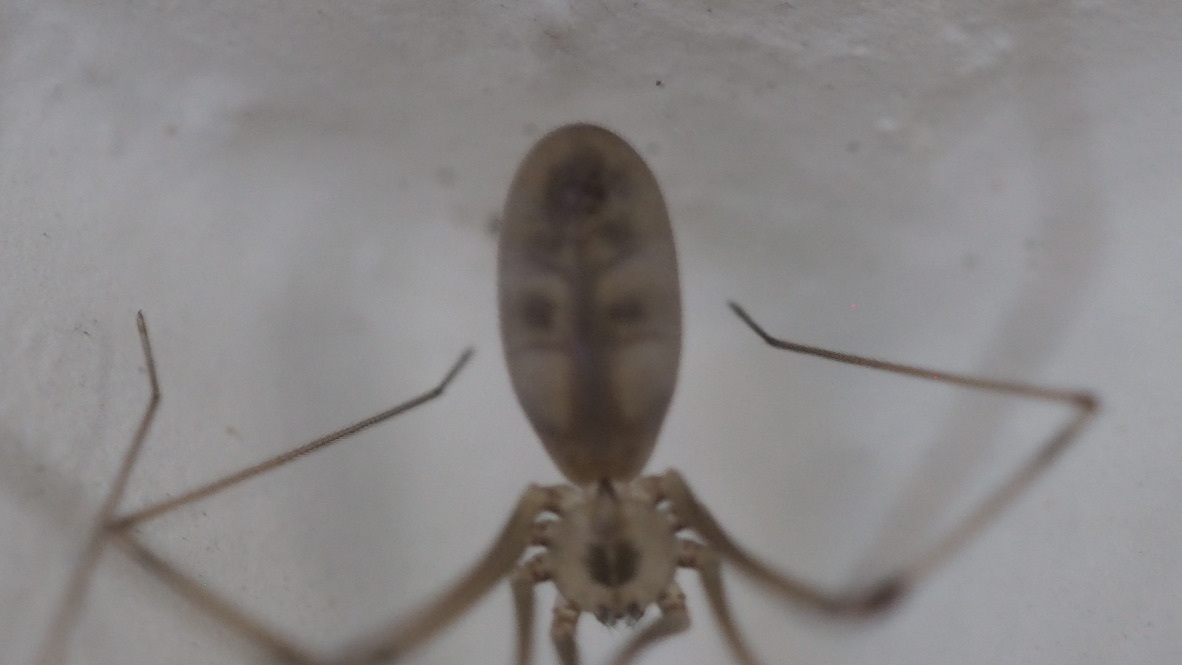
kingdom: Animalia
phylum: Arthropoda
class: Arachnida
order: Araneae
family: Pholcidae
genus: Pholcus
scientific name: Pholcus phalangioides
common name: Longbodied cellar spider
